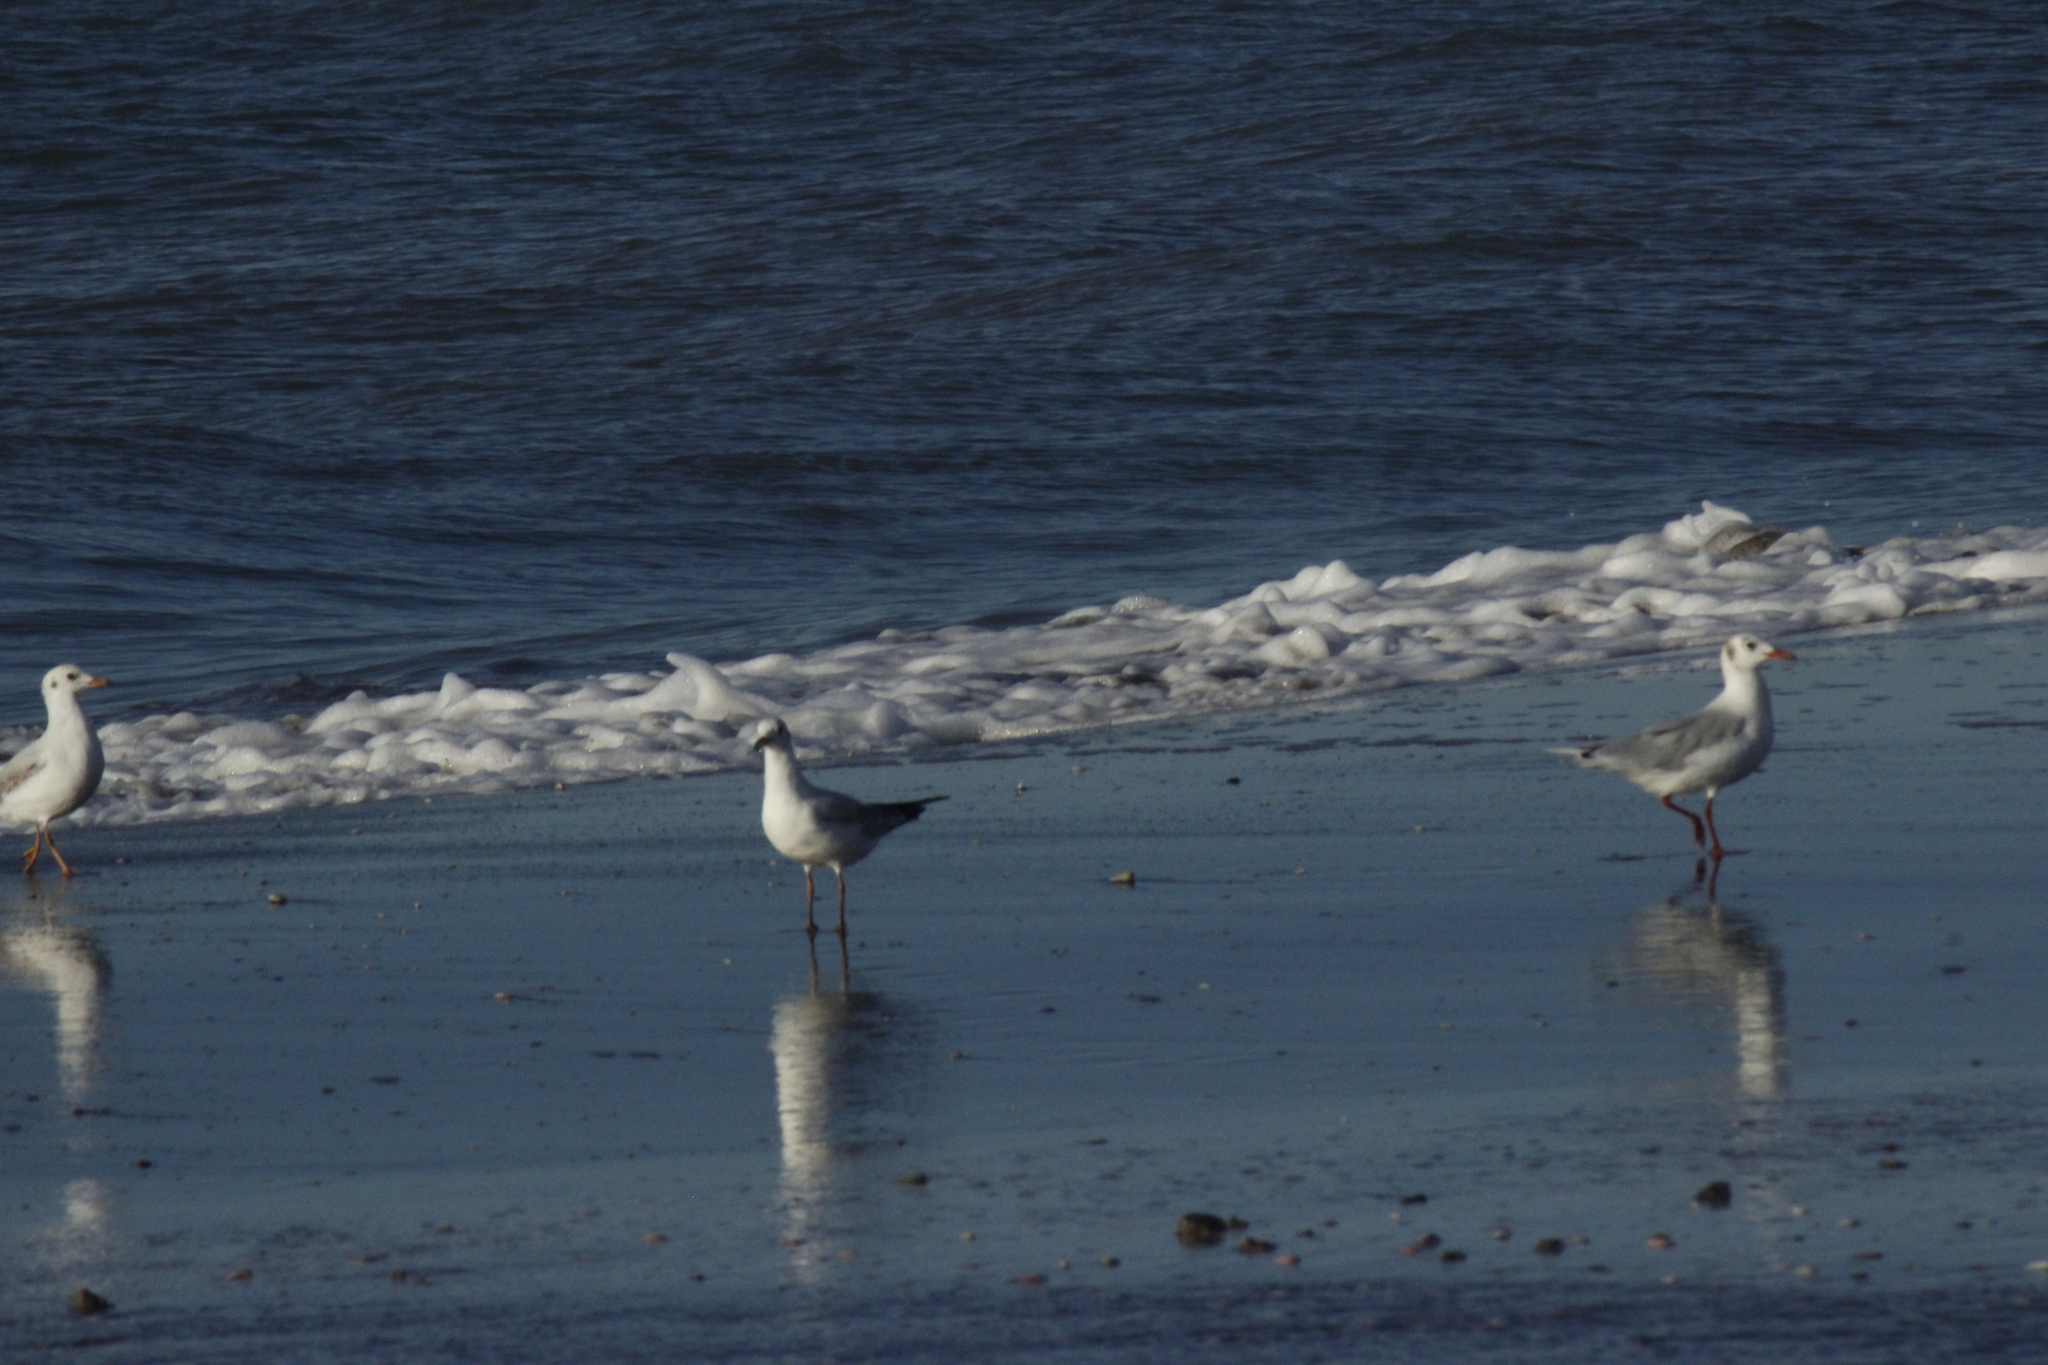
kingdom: Animalia
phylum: Chordata
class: Aves
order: Charadriiformes
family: Laridae
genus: Chroicocephalus
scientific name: Chroicocephalus maculipennis
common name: Brown-hooded gull
